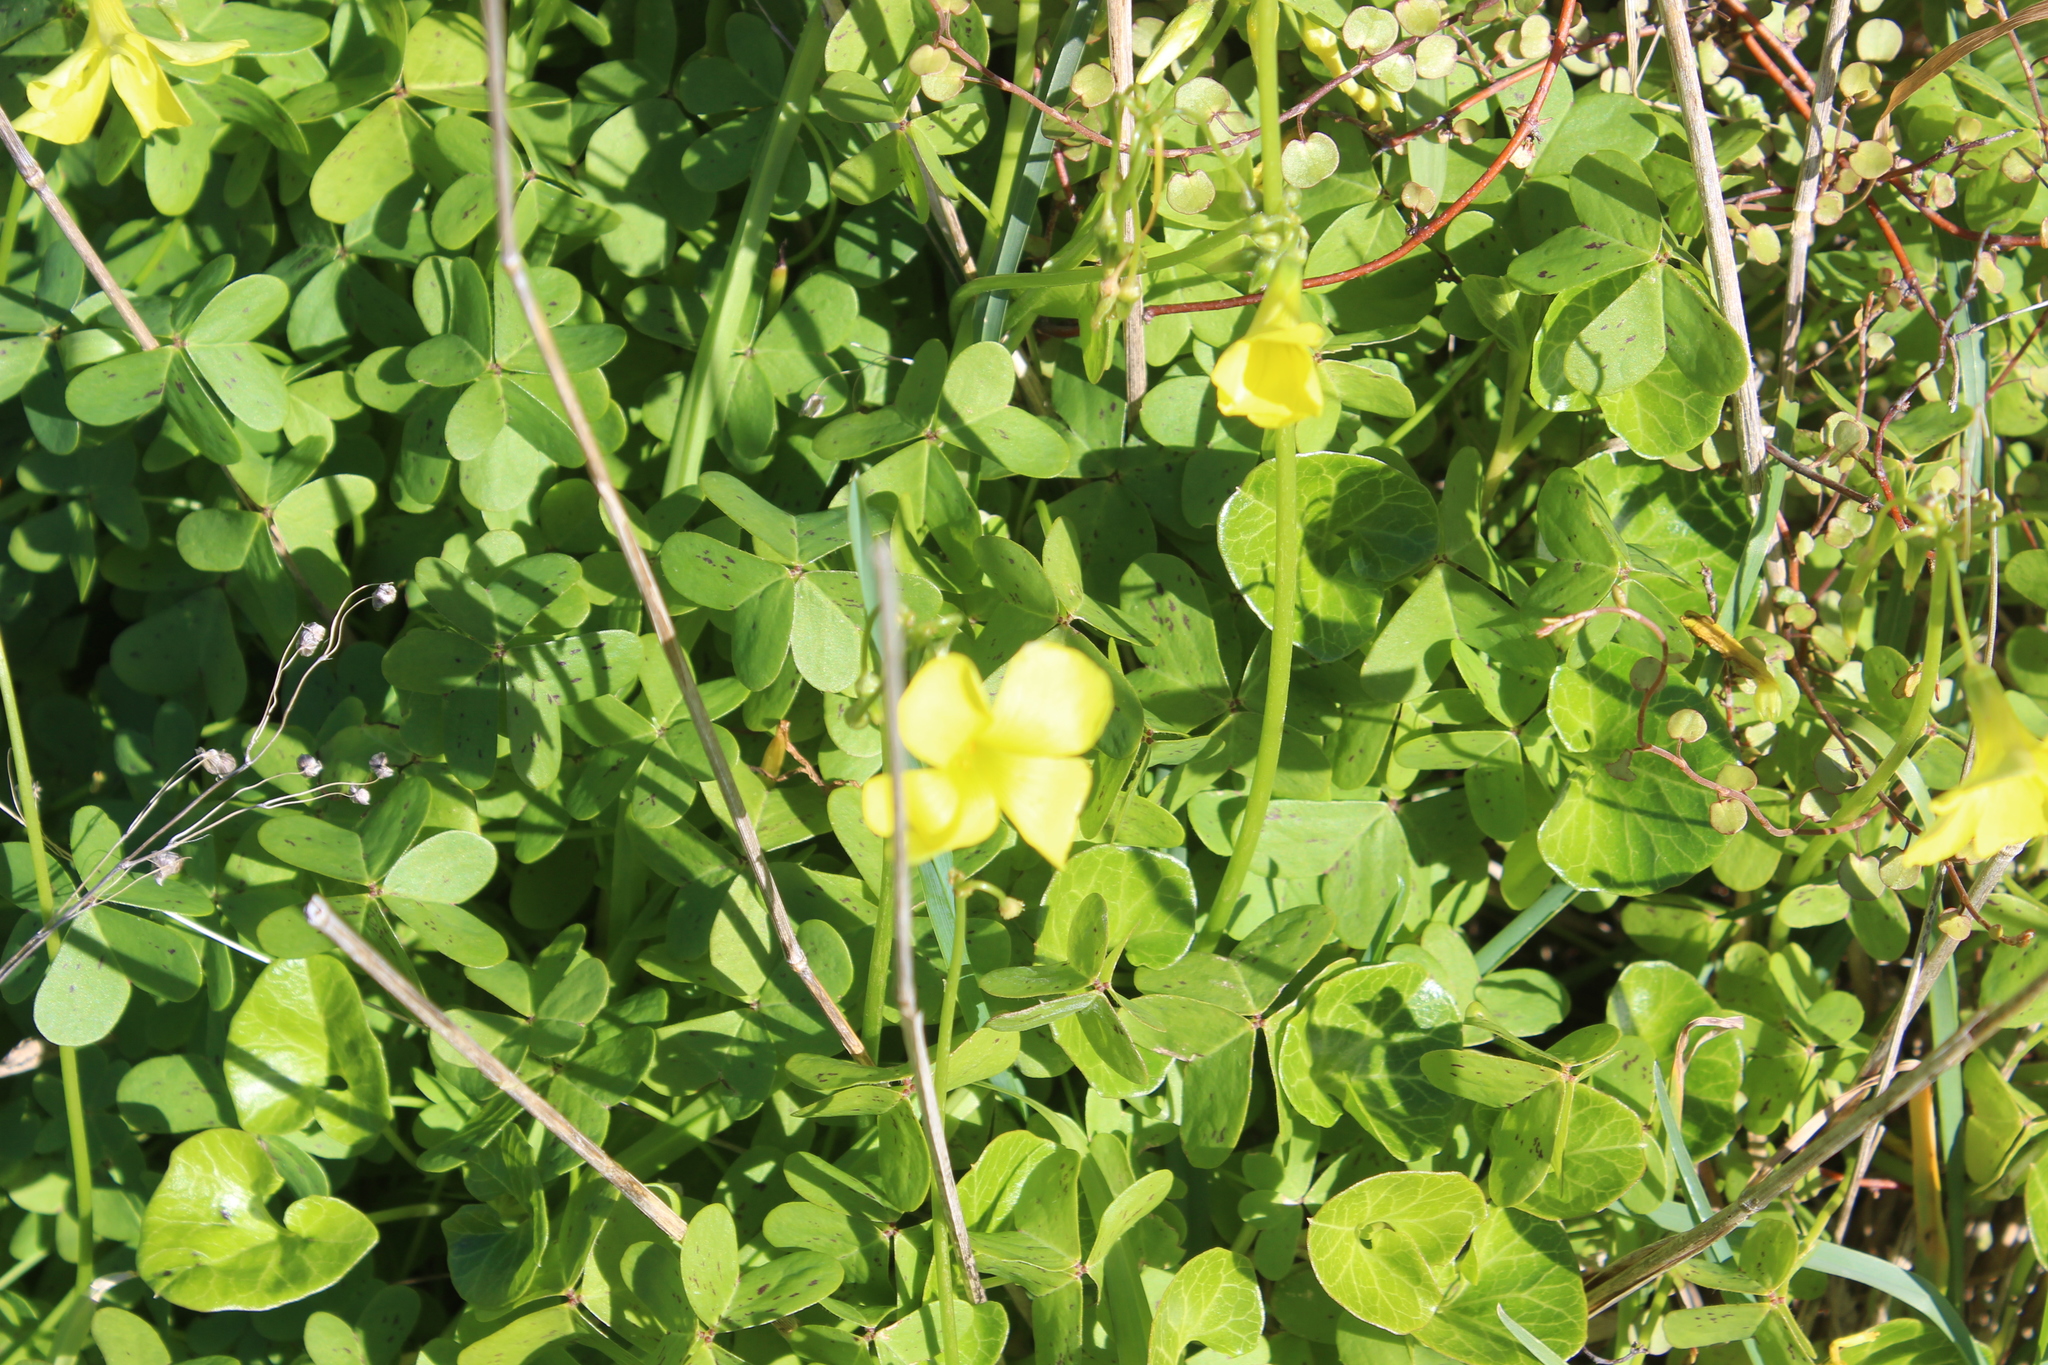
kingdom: Plantae
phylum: Tracheophyta
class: Magnoliopsida
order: Oxalidales
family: Oxalidaceae
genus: Oxalis
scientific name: Oxalis pes-caprae
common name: Bermuda-buttercup
